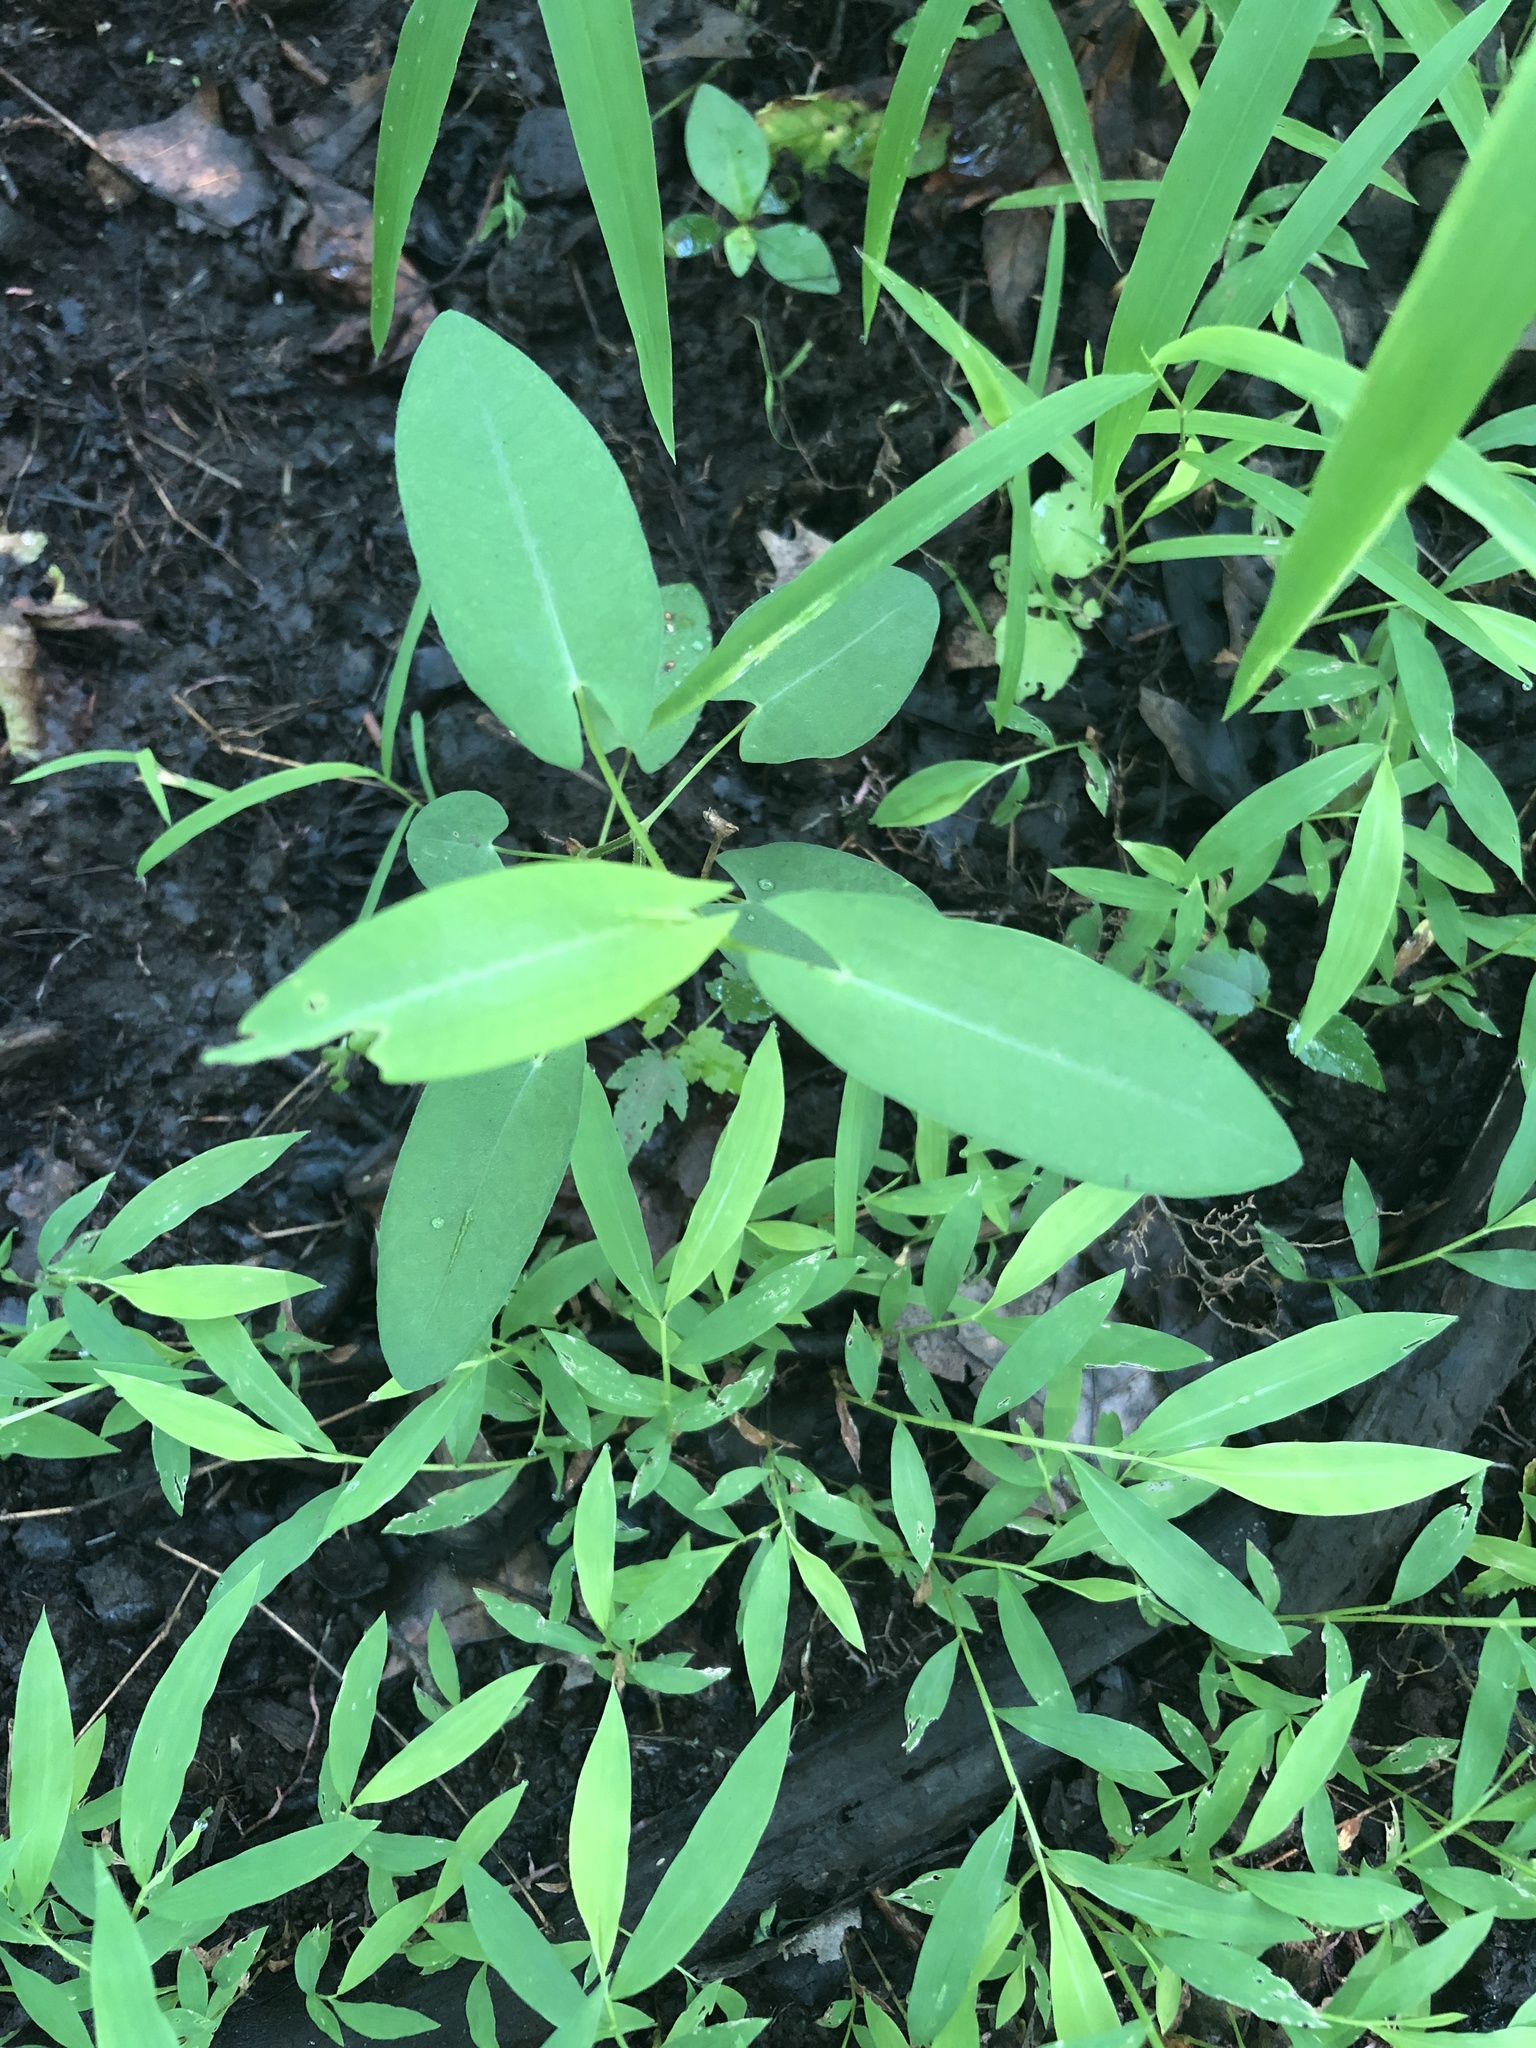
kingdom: Plantae
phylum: Tracheophyta
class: Magnoliopsida
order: Caryophyllales
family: Polygonaceae
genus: Persicaria
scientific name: Persicaria sagittata
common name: American tearthumb
